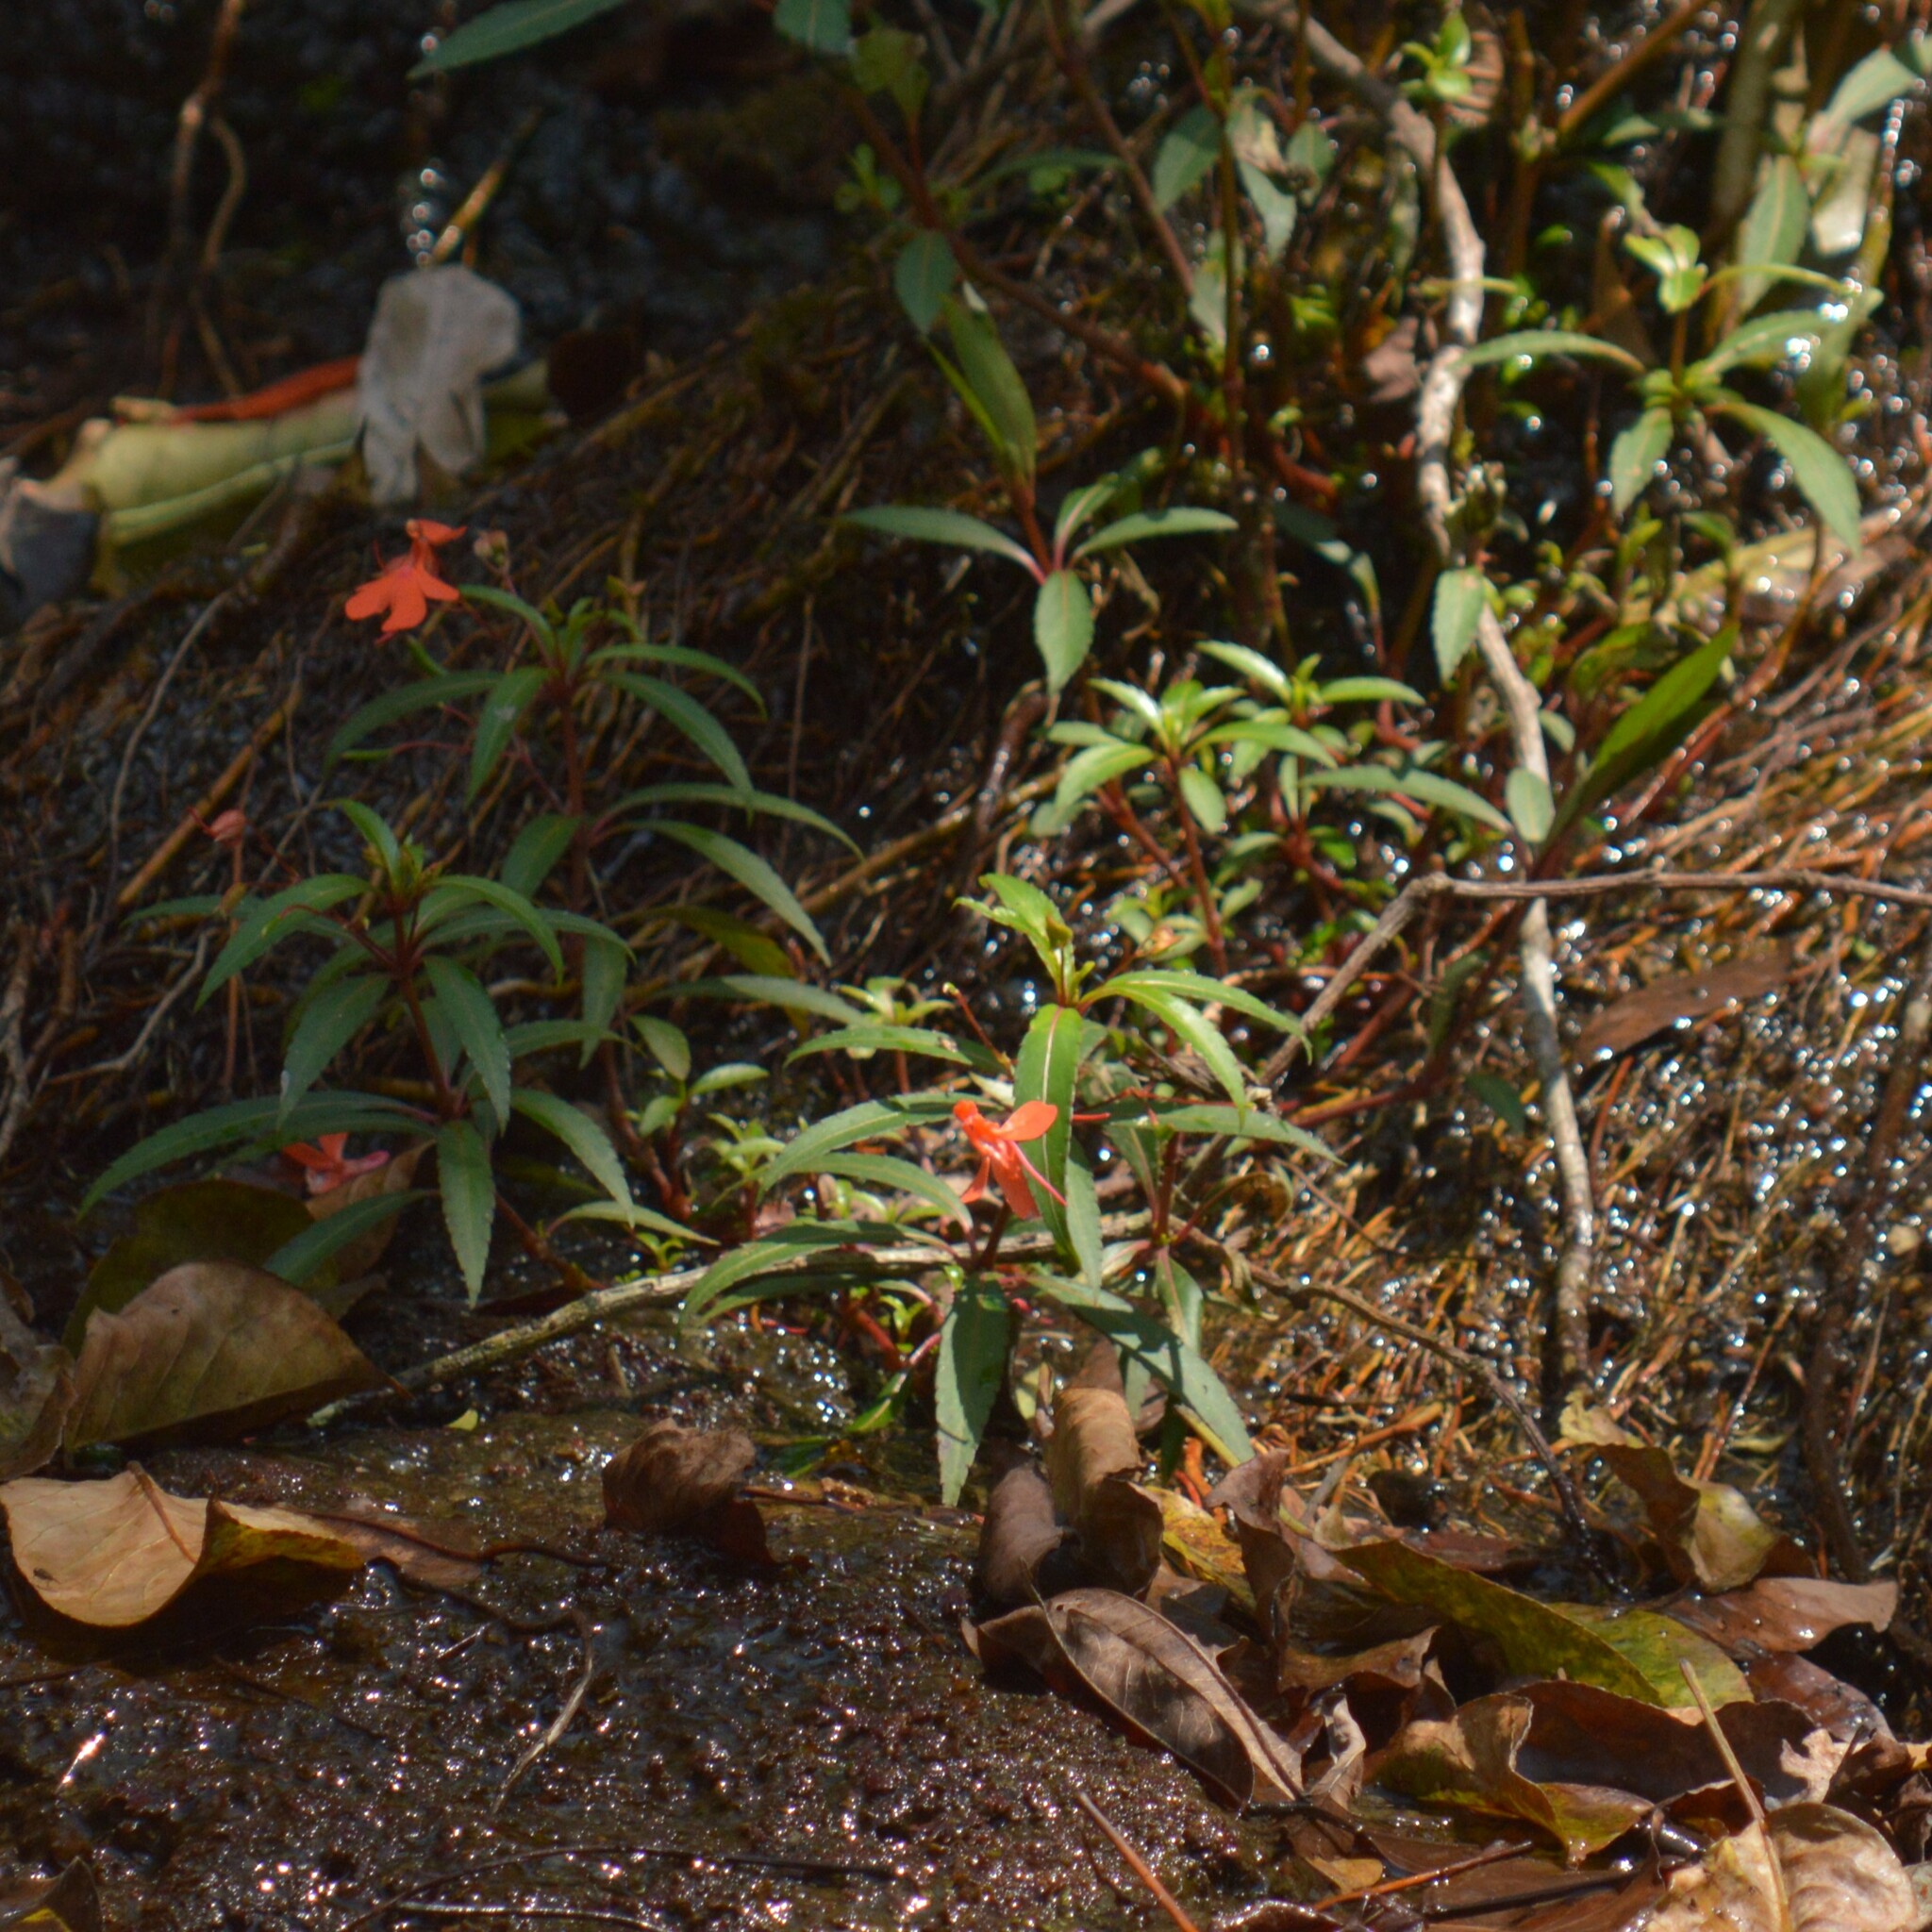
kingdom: Plantae
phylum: Tracheophyta
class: Magnoliopsida
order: Ericales
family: Balsaminaceae
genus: Impatiens
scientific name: Impatiens verticillata
